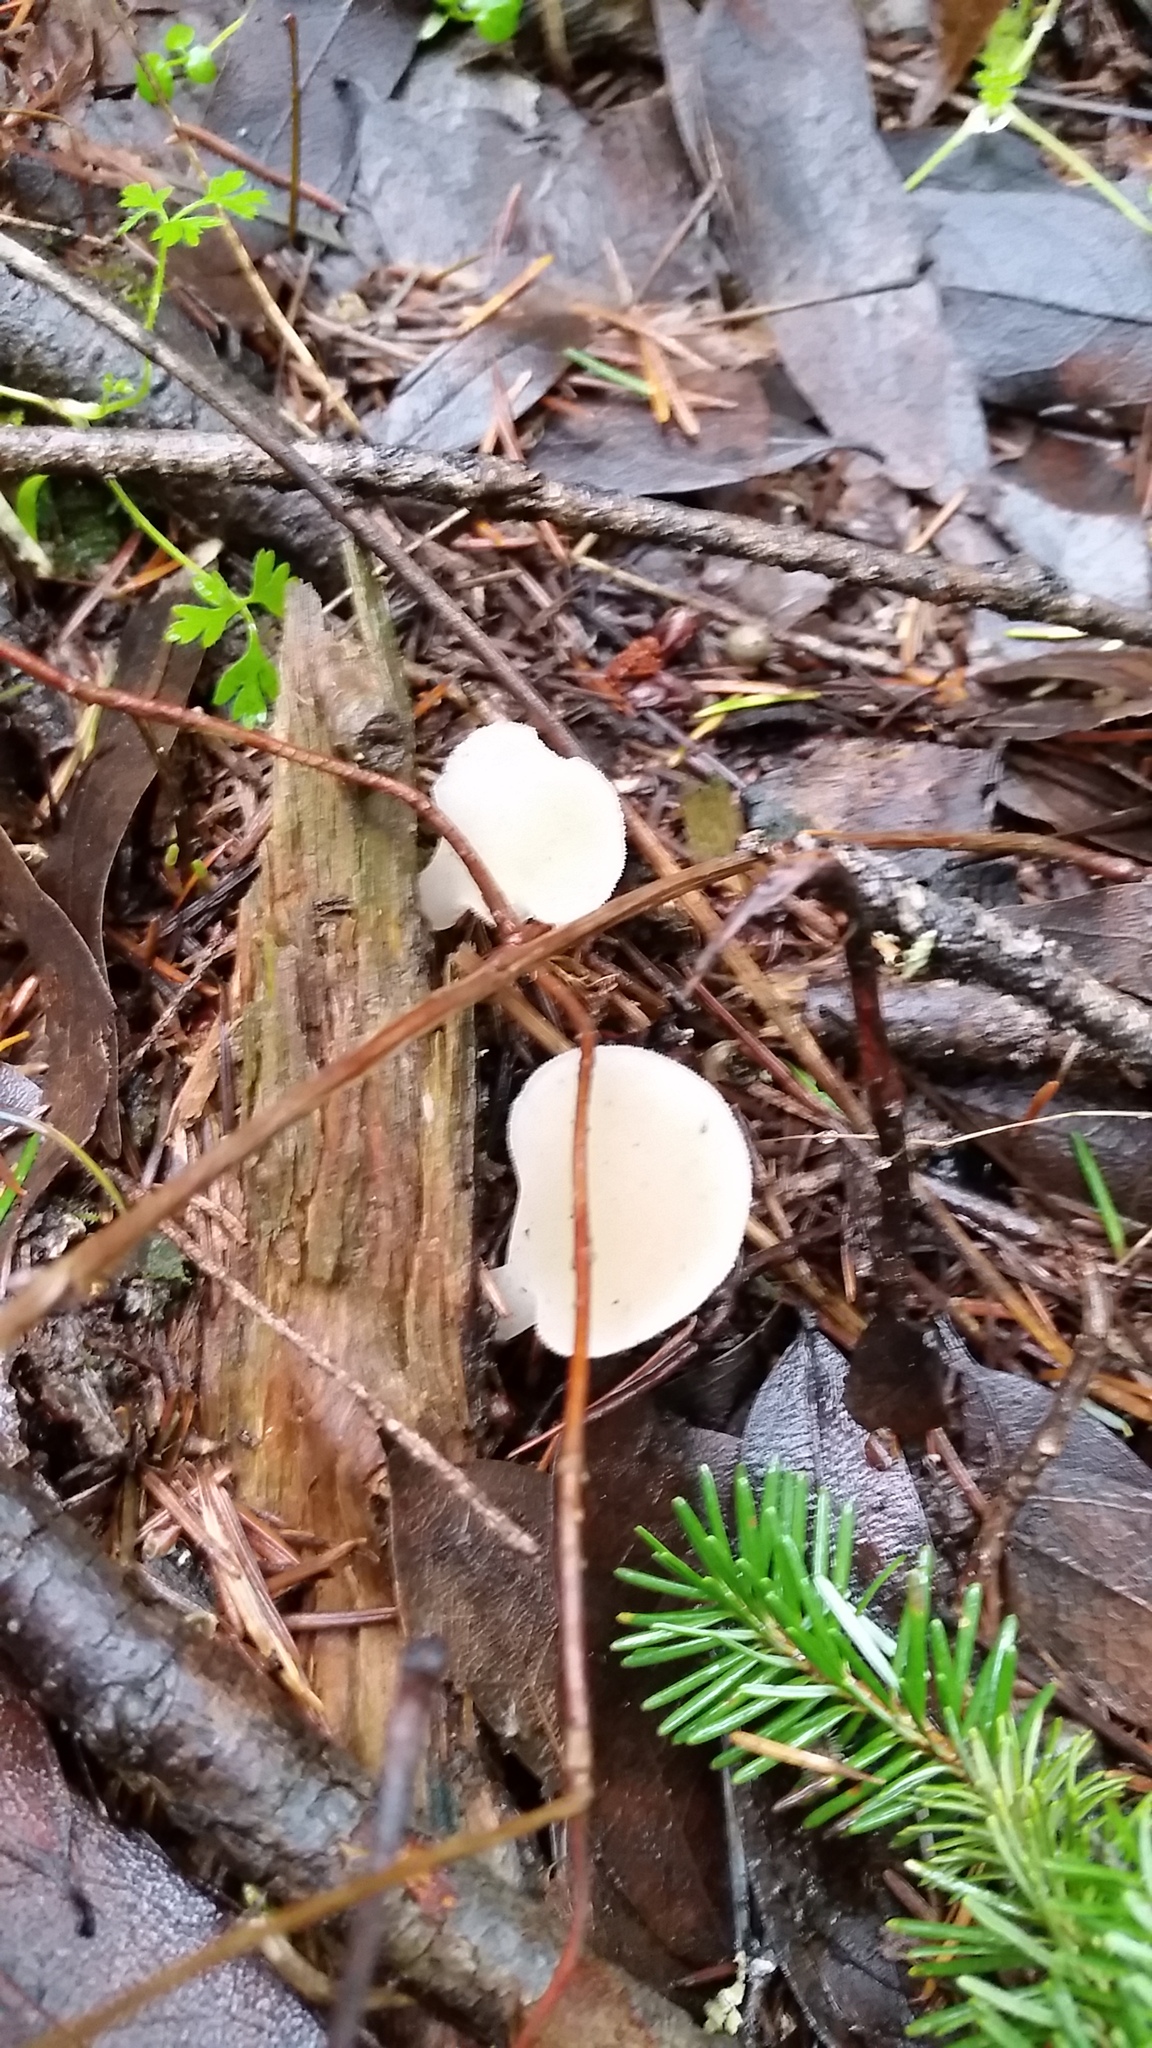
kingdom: Fungi
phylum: Basidiomycota
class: Agaricomycetes
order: Auriculariales
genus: Pseudohydnum
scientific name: Pseudohydnum gelatinosum
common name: Jelly tongue
